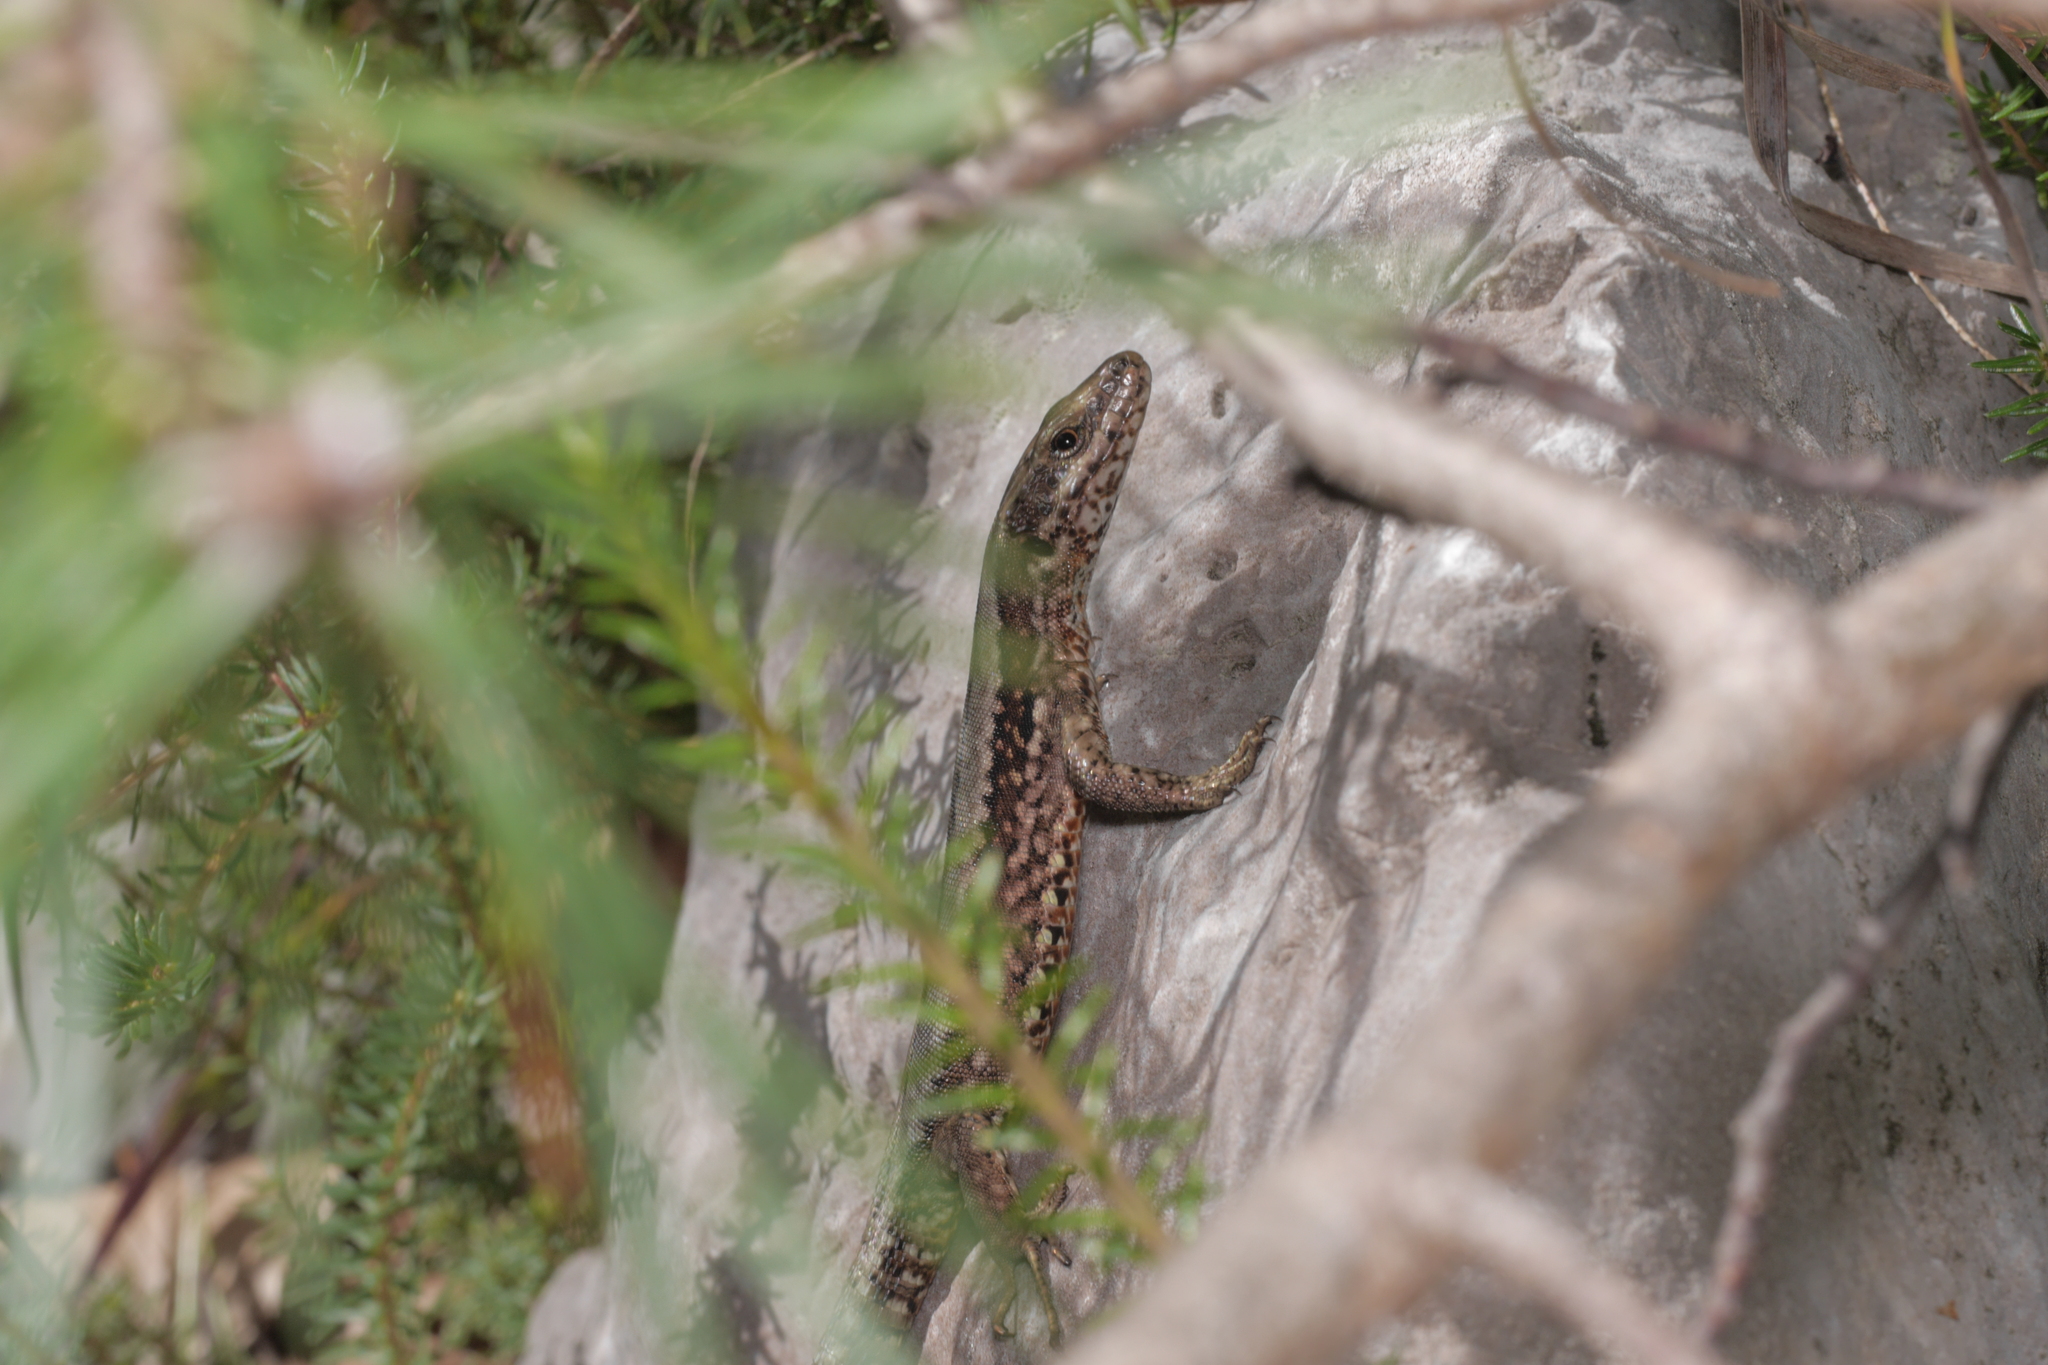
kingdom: Animalia
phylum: Chordata
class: Squamata
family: Lacertidae
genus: Podarcis
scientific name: Podarcis muralis
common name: Common wall lizard
